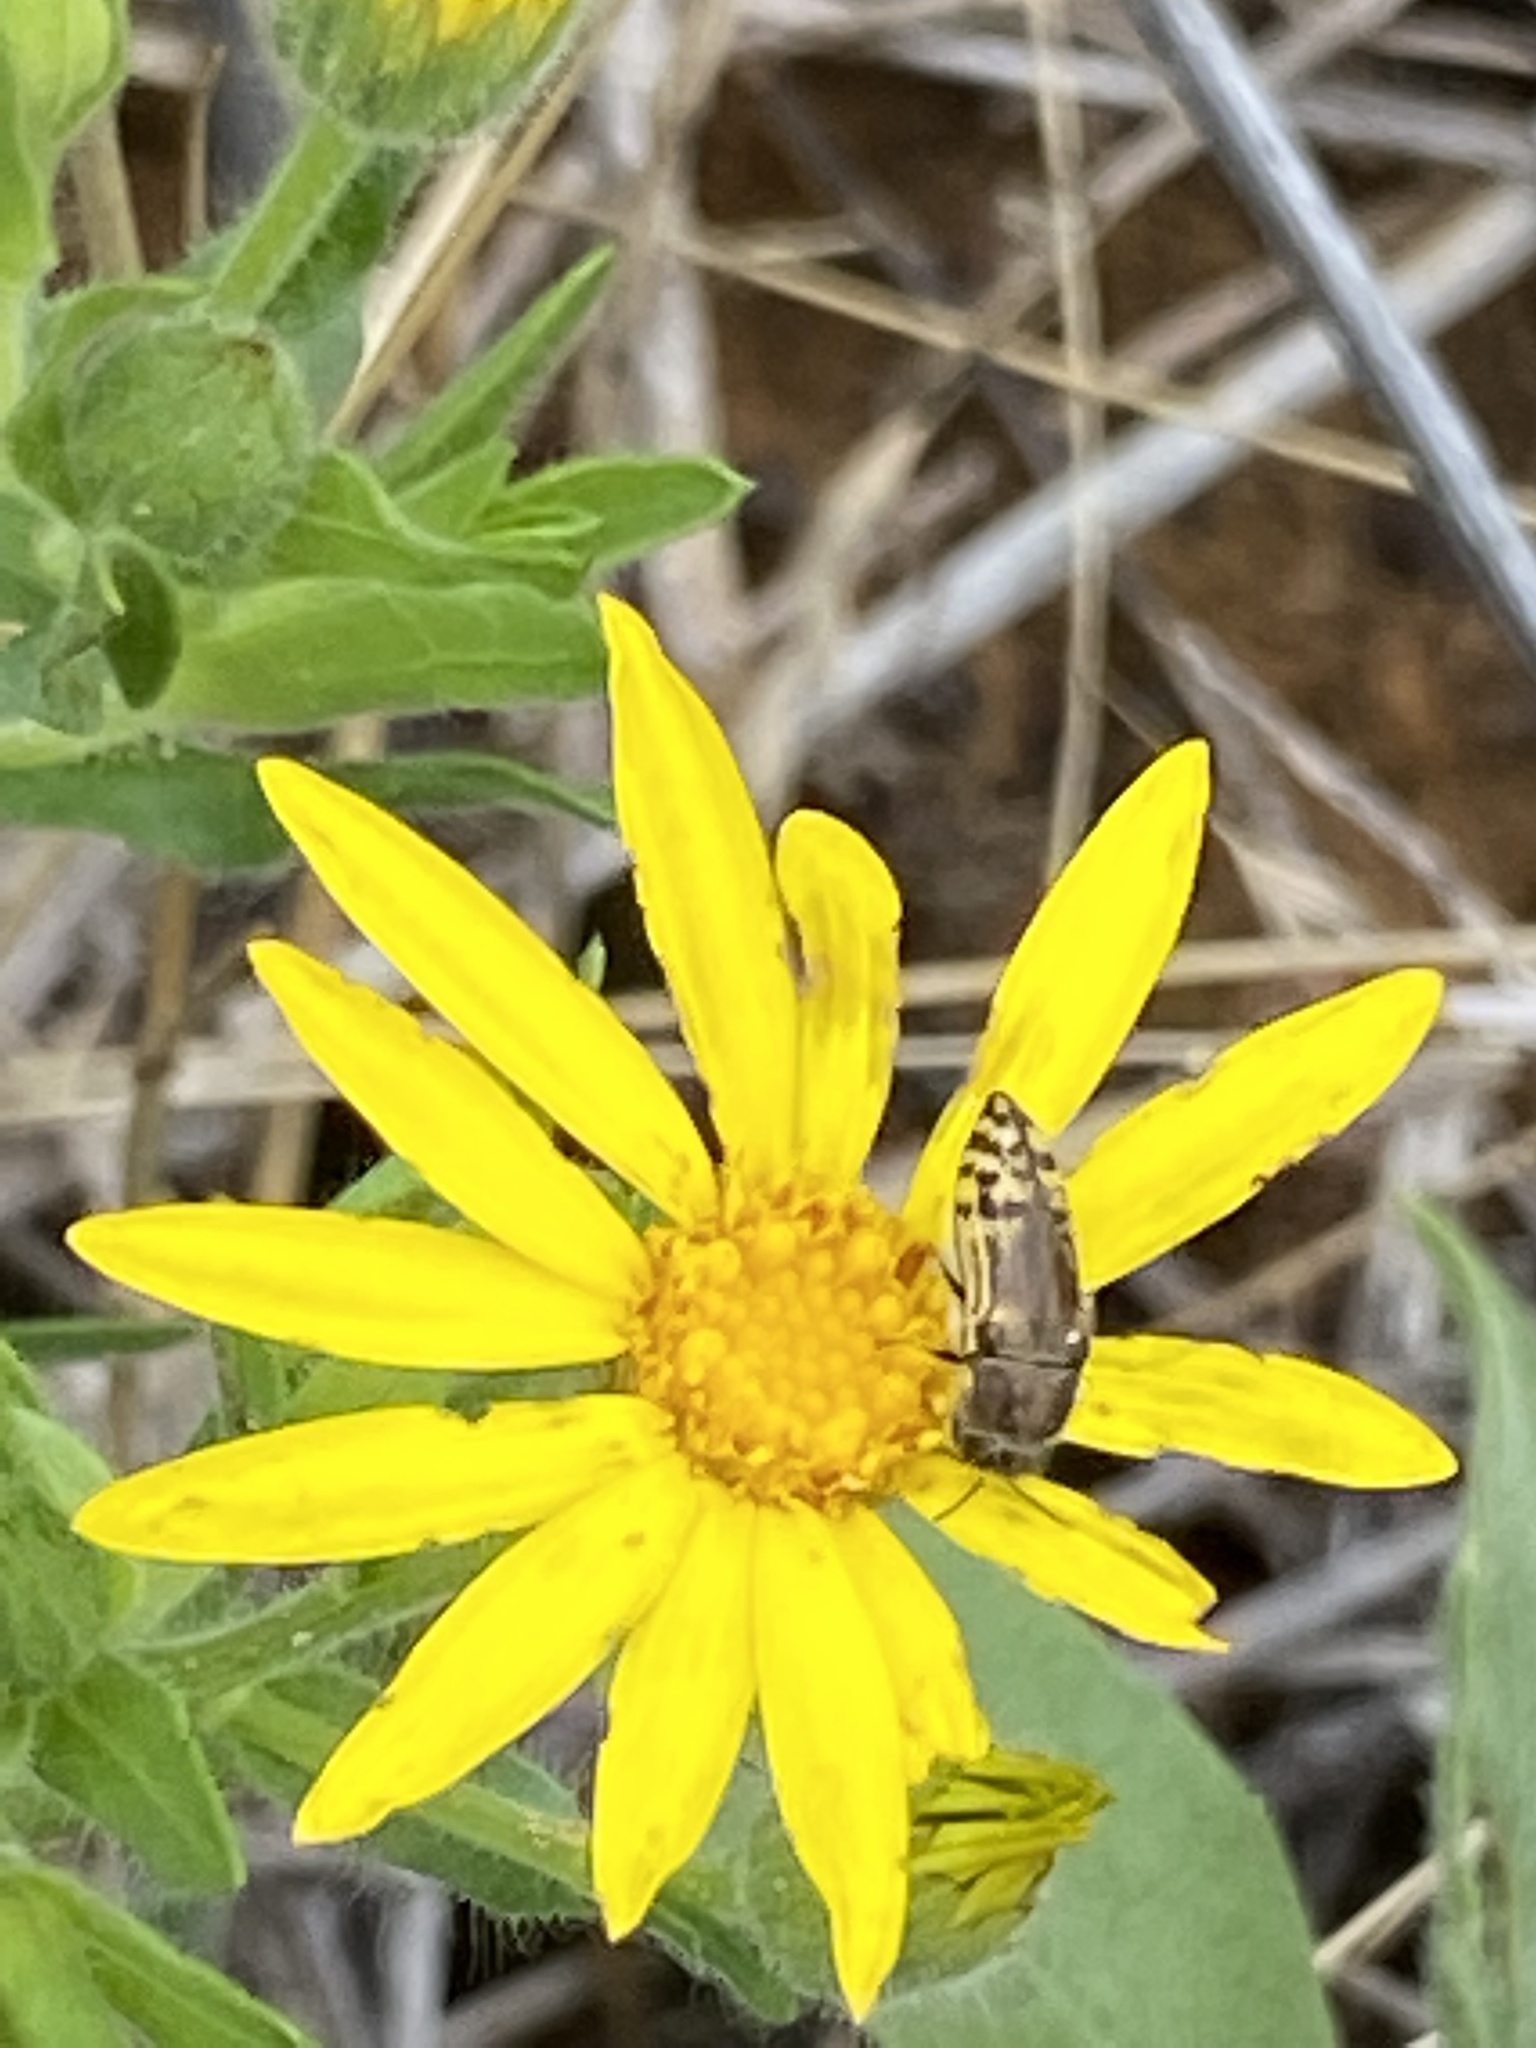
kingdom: Animalia
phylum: Arthropoda
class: Insecta
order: Coleoptera
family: Buprestidae
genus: Acmaeodera
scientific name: Acmaeodera mixta
